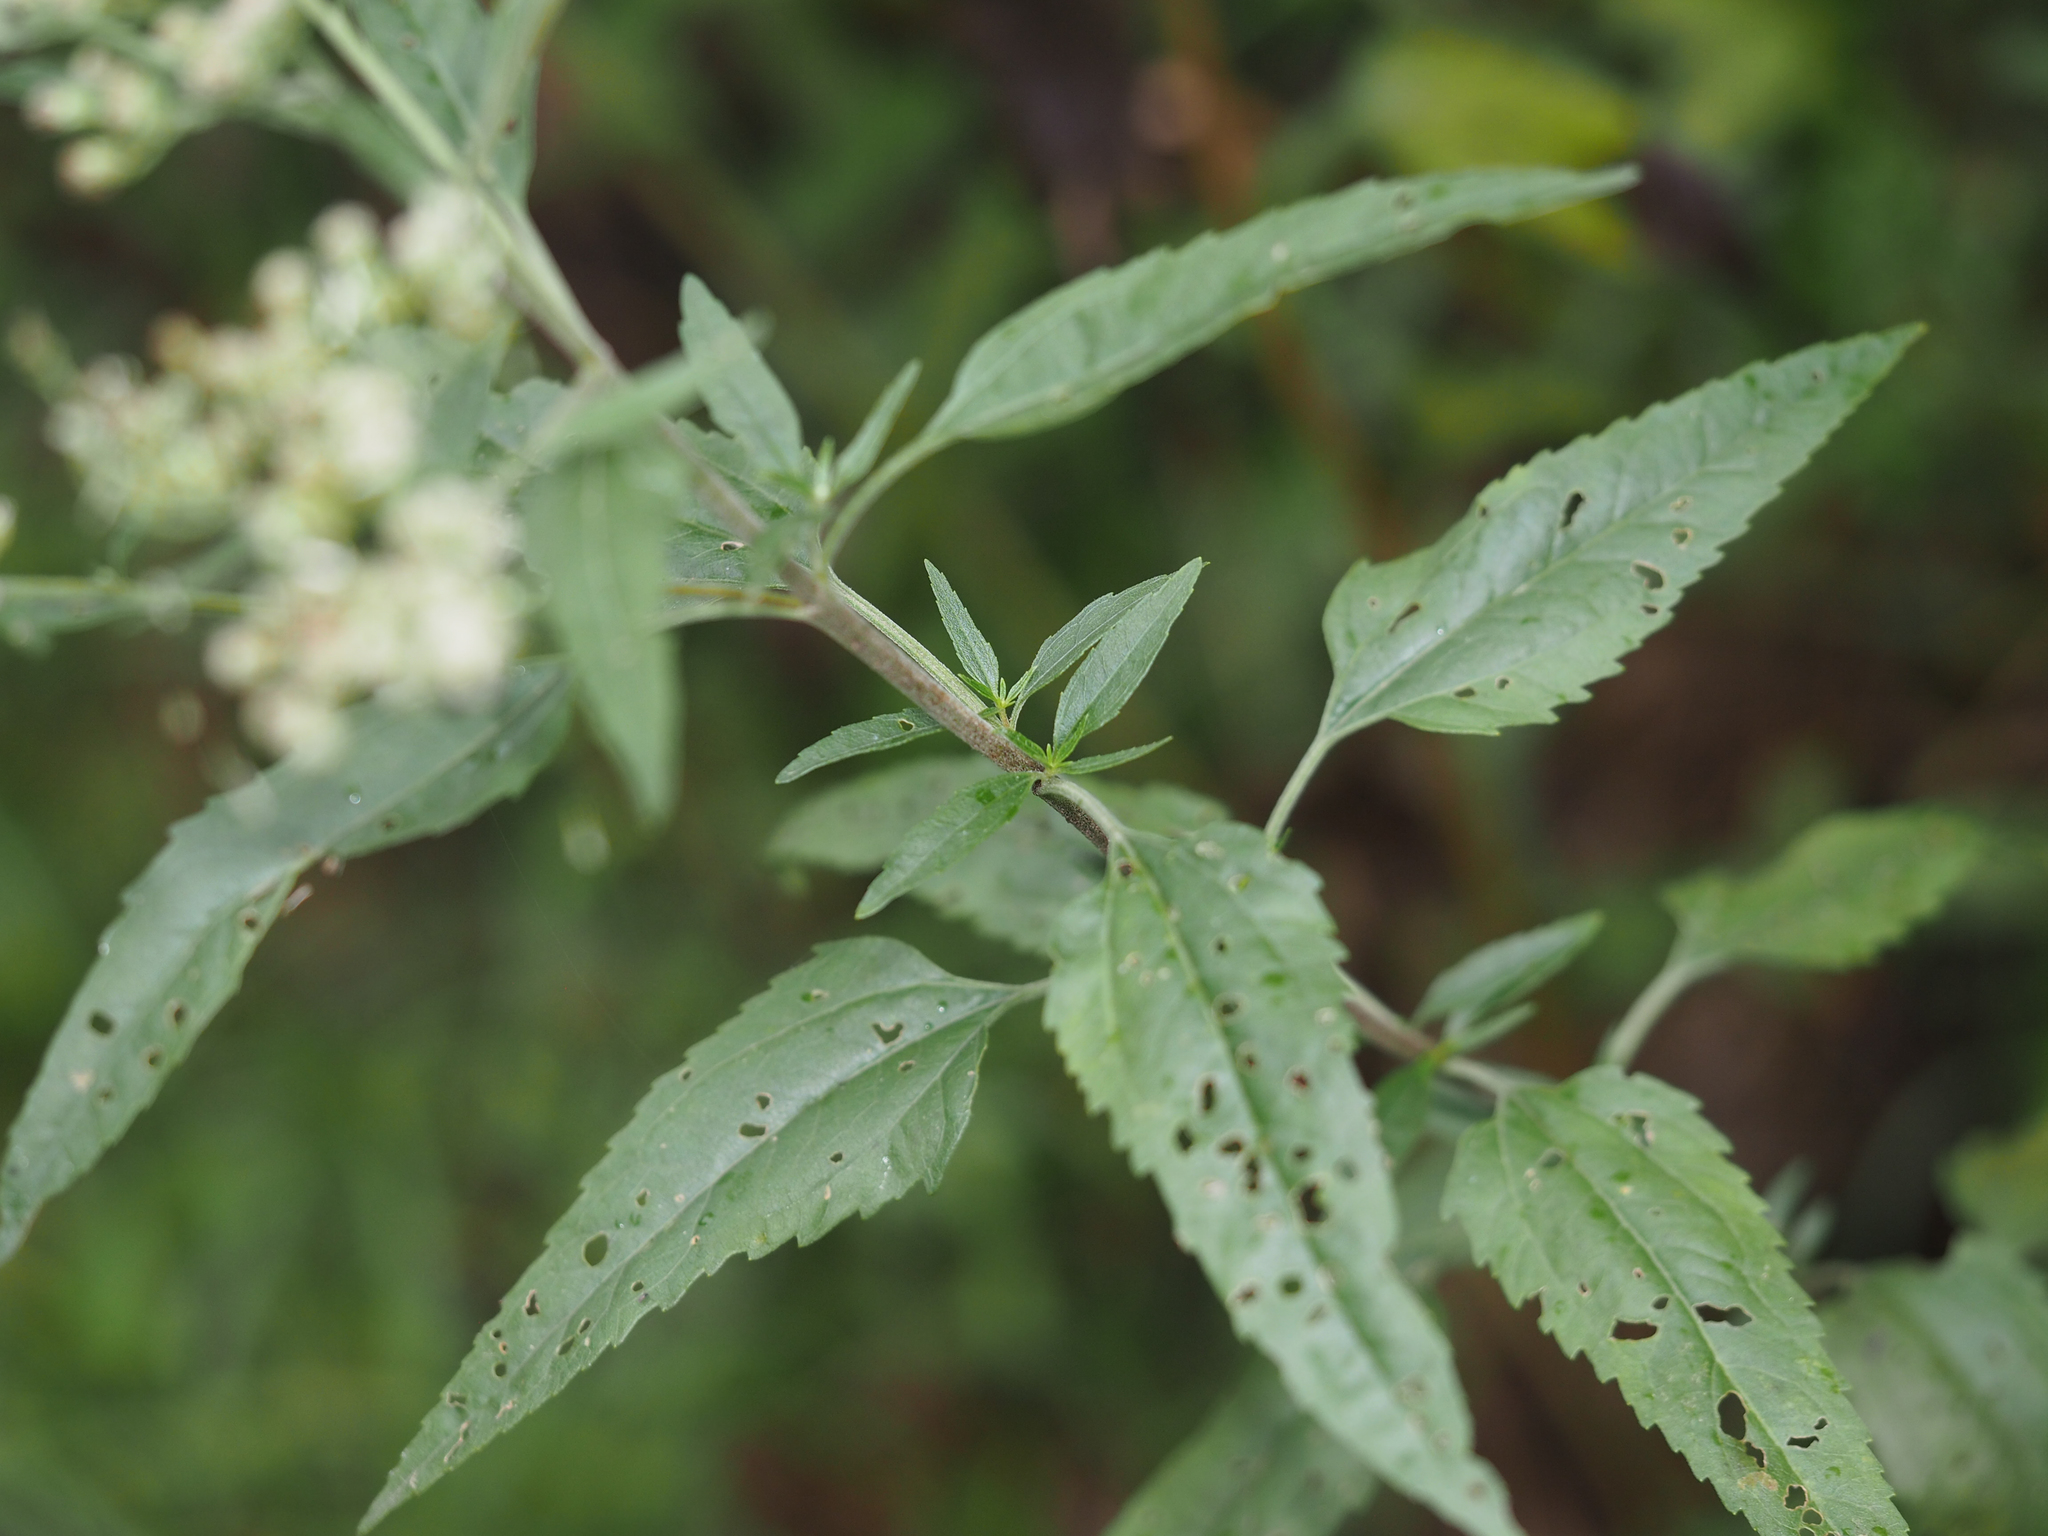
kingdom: Plantae
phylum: Tracheophyta
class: Magnoliopsida
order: Asterales
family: Asteraceae
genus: Eupatorium
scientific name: Eupatorium serotinum
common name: Late boneset
